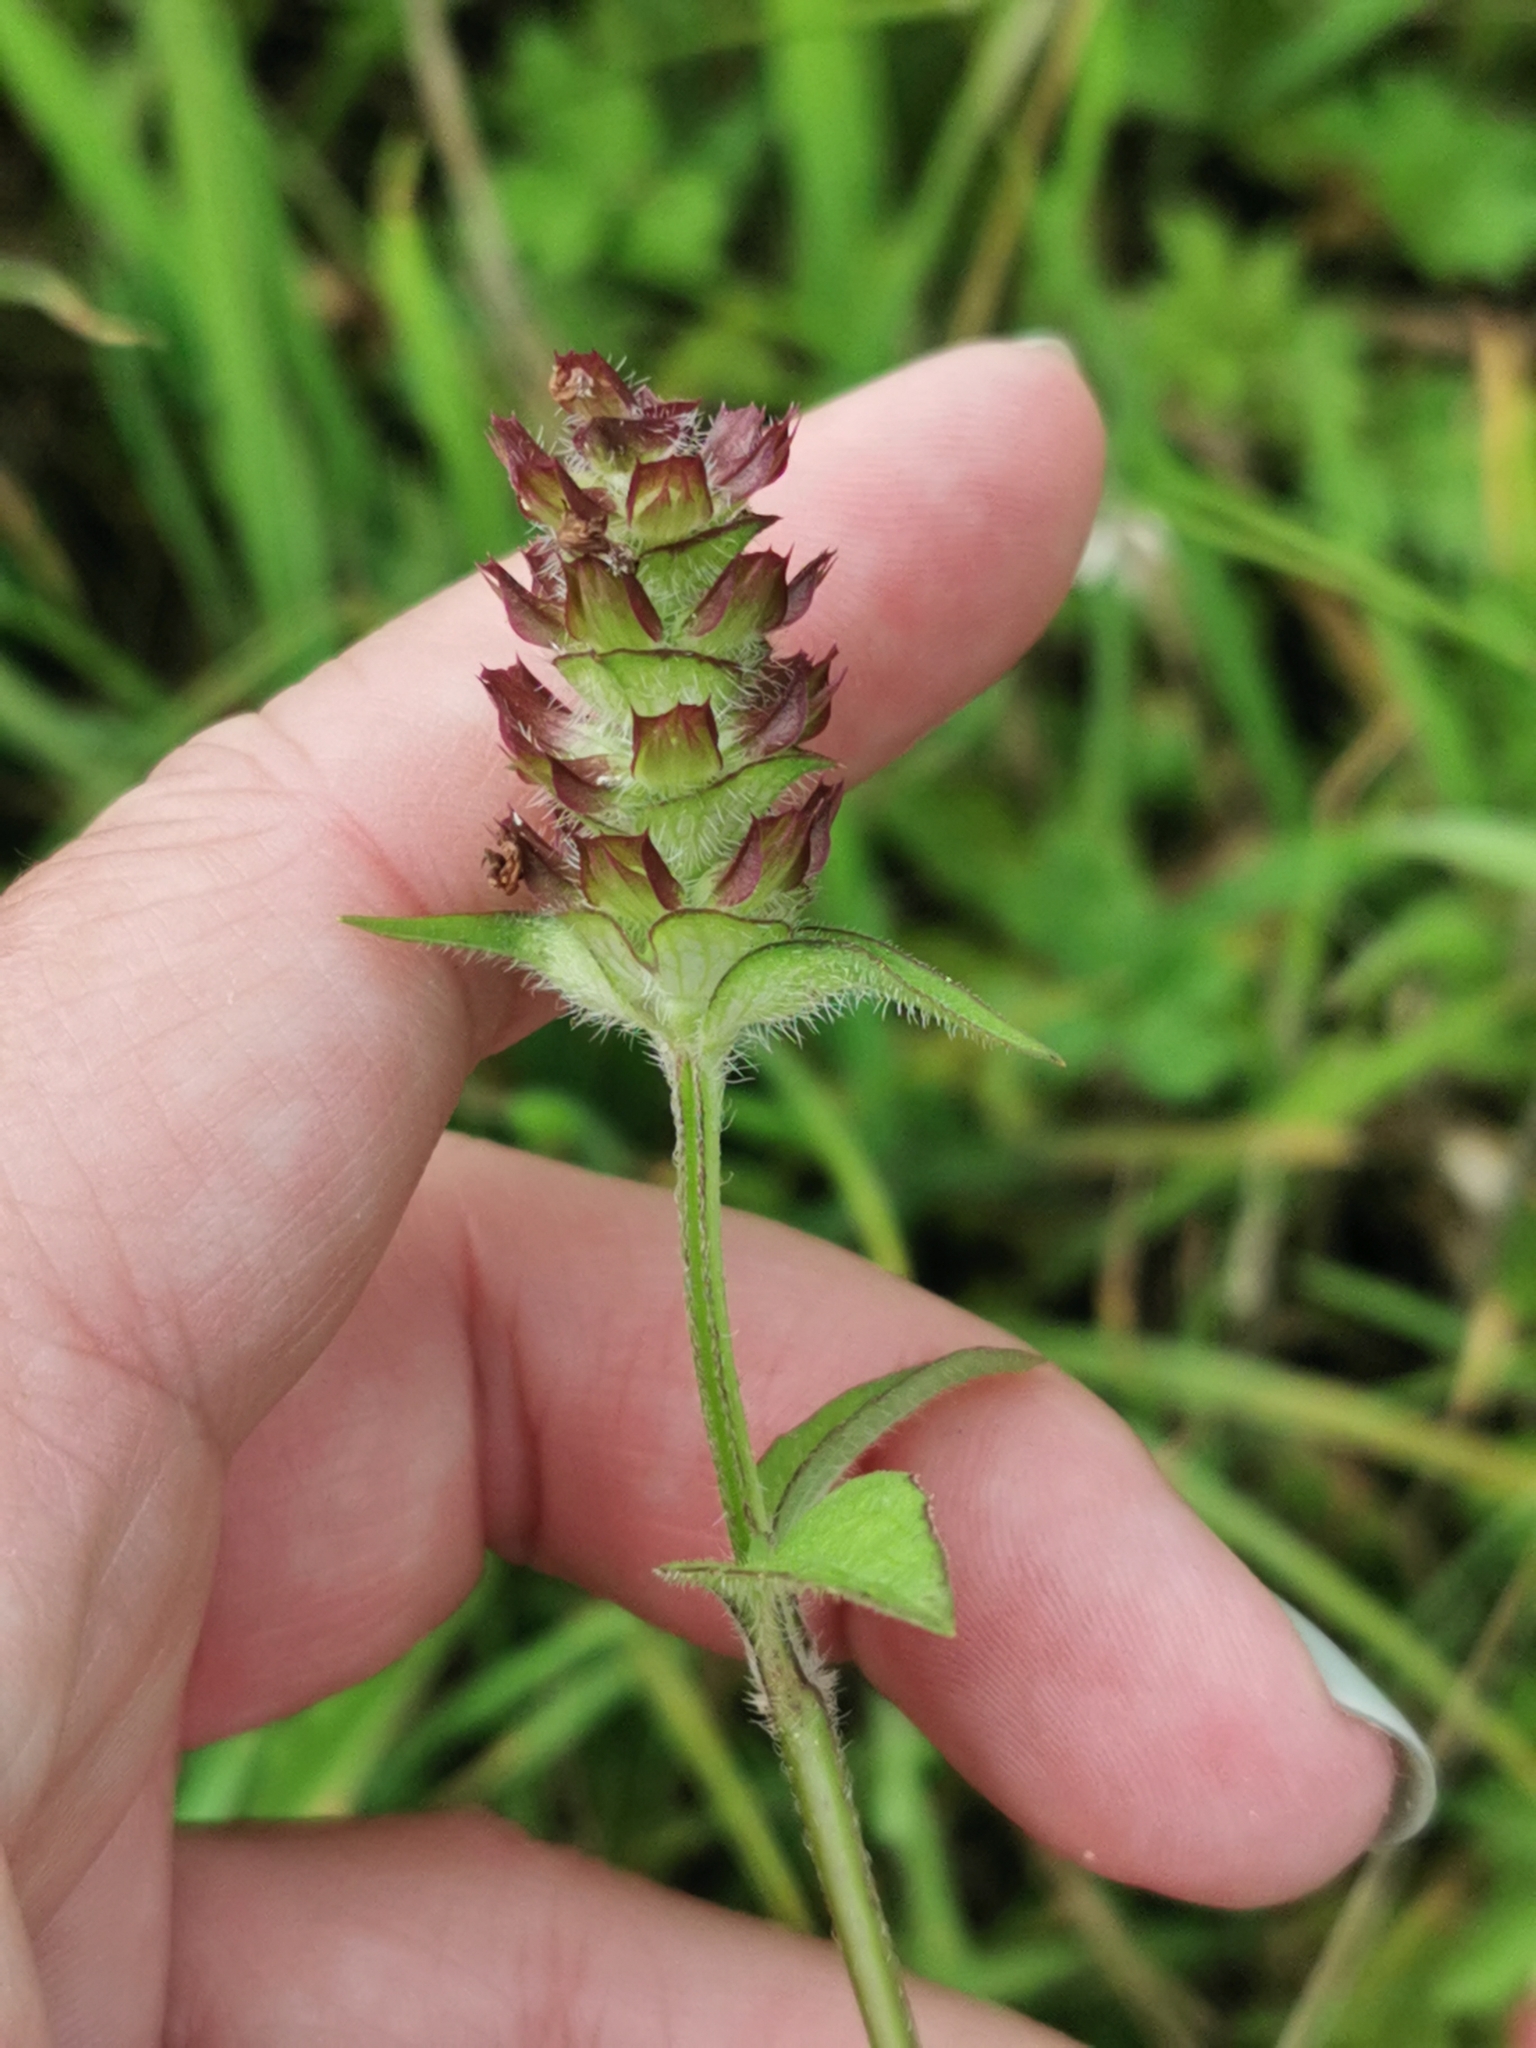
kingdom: Plantae
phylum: Tracheophyta
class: Magnoliopsida
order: Lamiales
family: Lamiaceae
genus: Prunella
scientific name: Prunella vulgaris
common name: Heal-all
